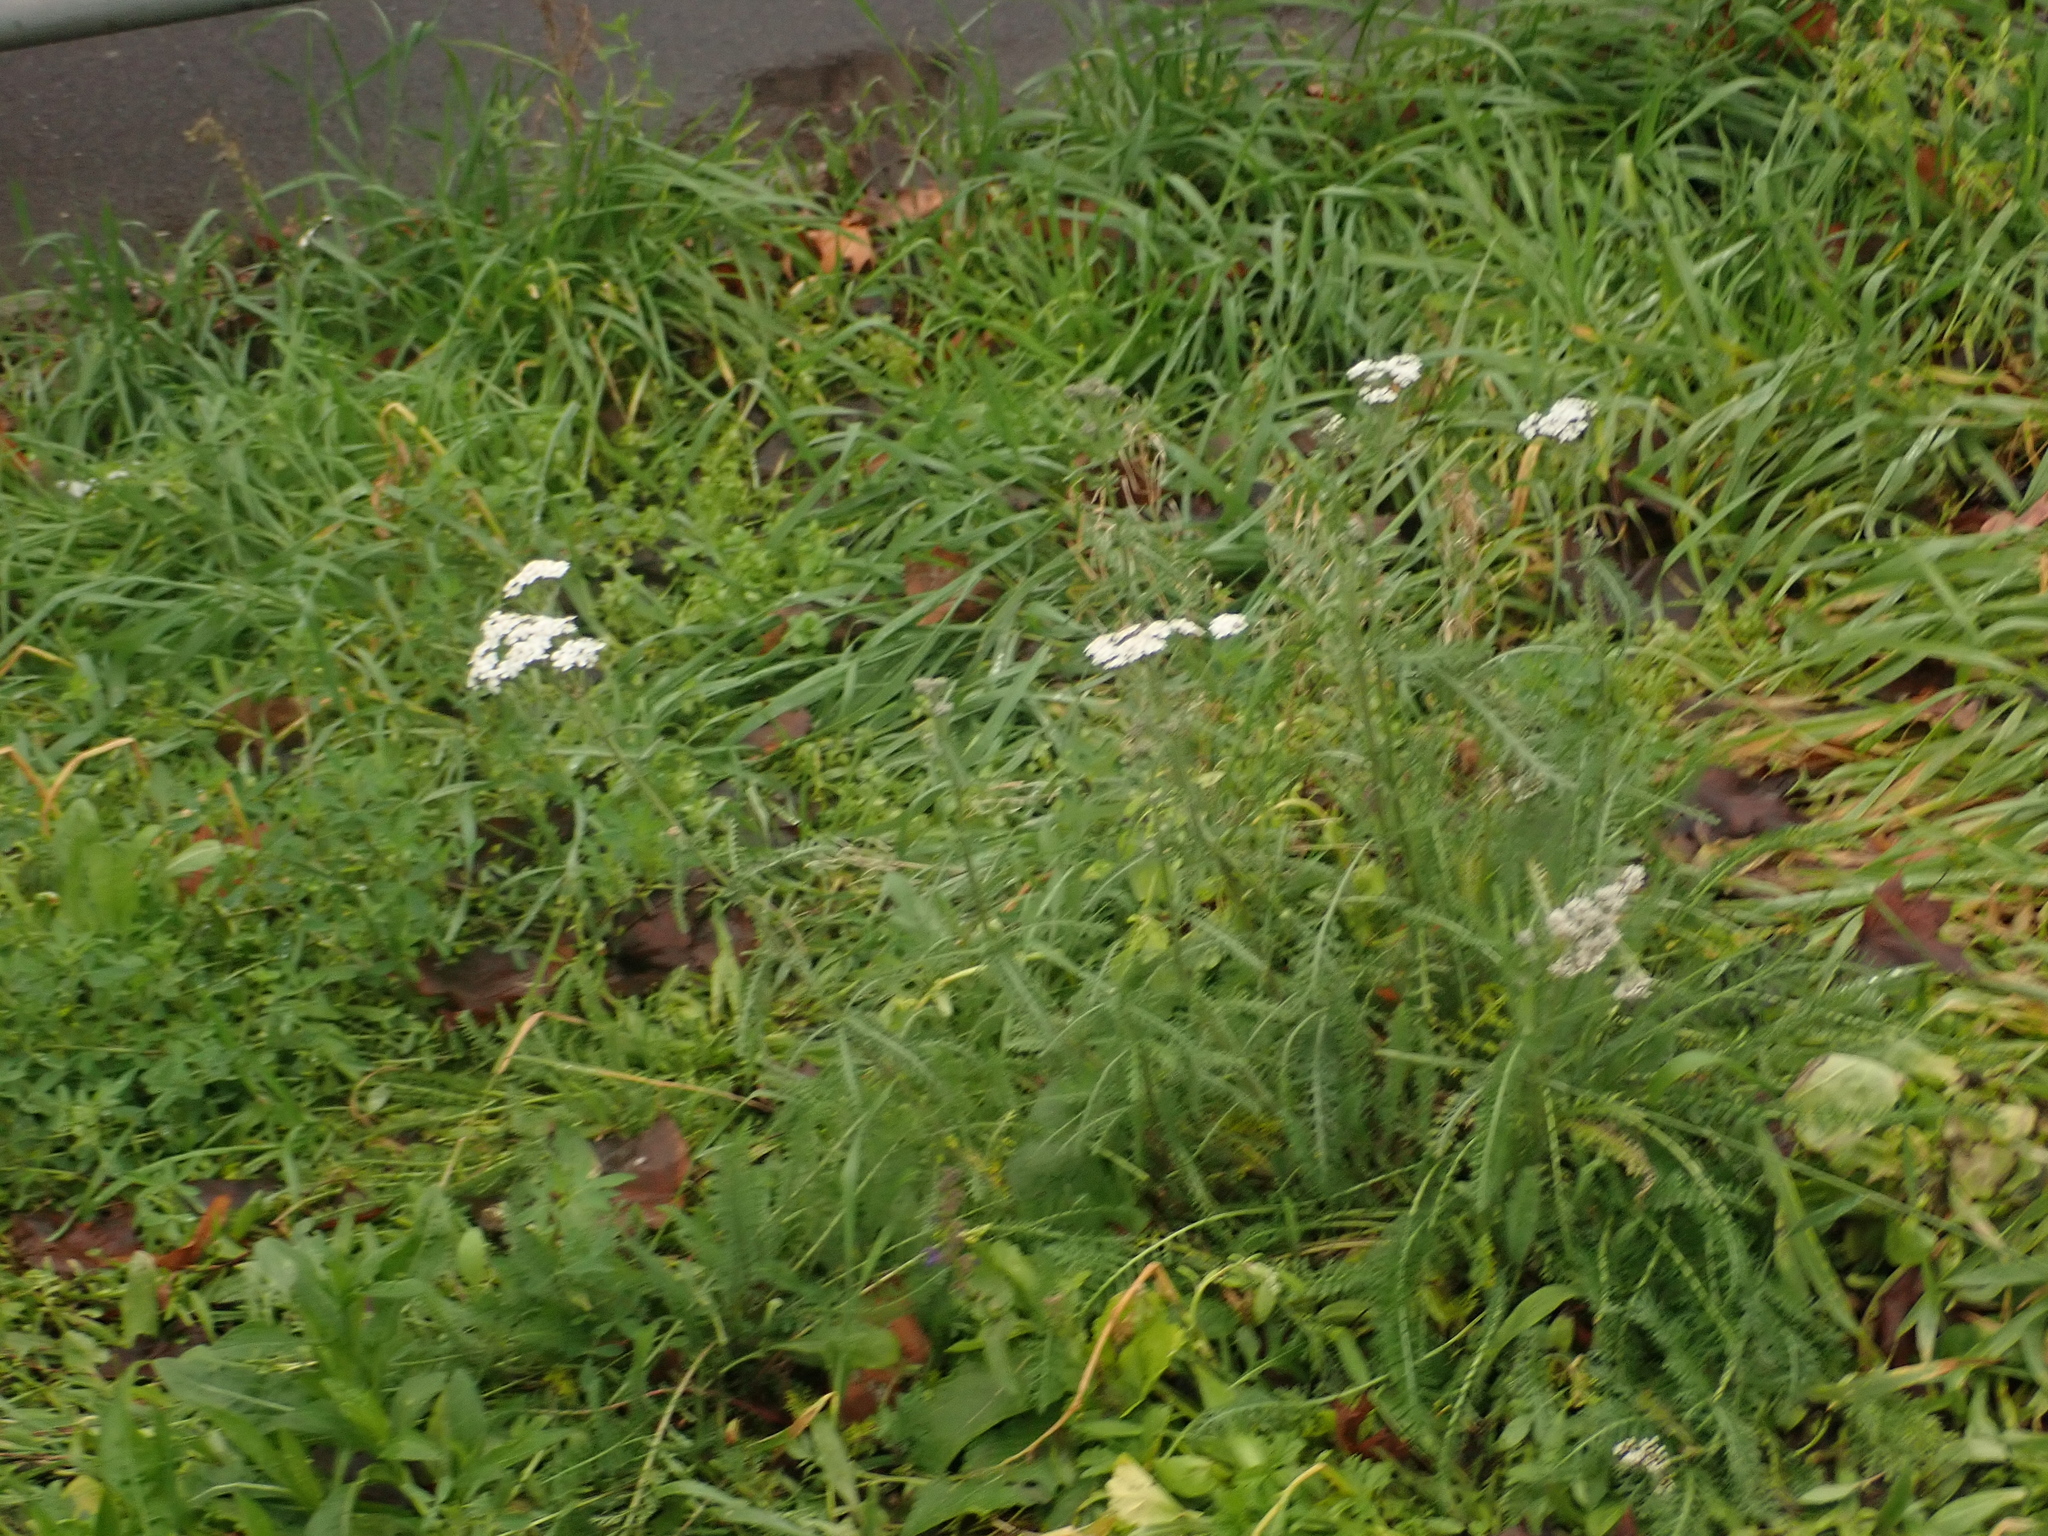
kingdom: Plantae
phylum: Tracheophyta
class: Magnoliopsida
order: Asterales
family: Asteraceae
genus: Achillea
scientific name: Achillea millefolium
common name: Yarrow
